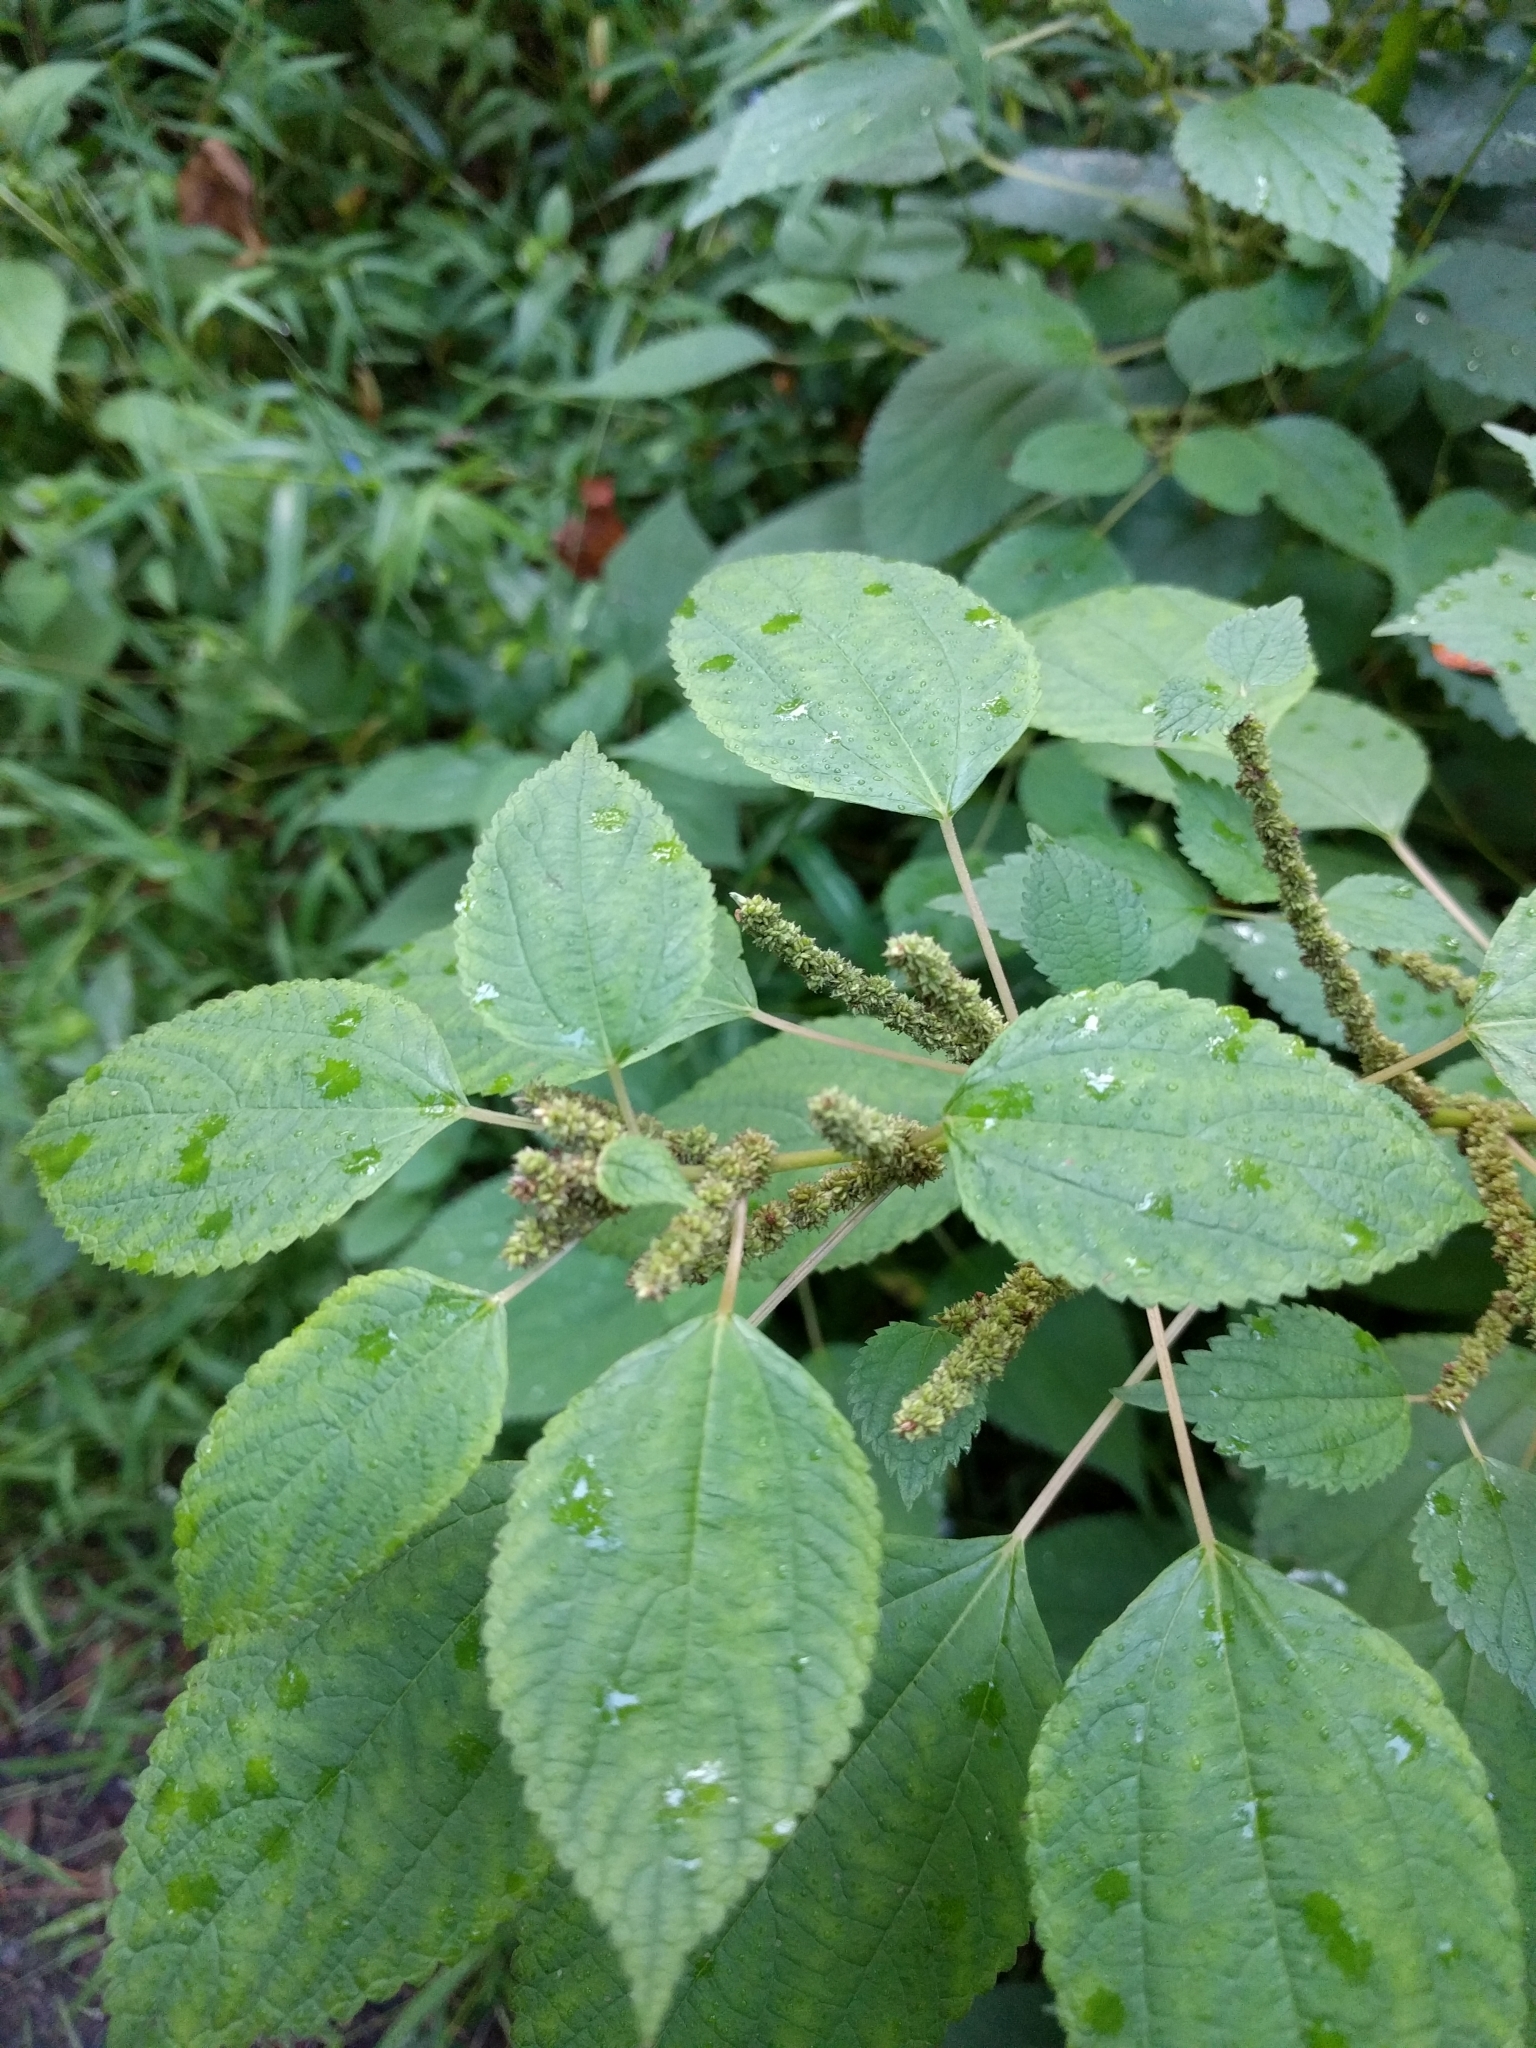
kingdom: Plantae
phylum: Tracheophyta
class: Magnoliopsida
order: Rosales
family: Urticaceae
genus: Boehmeria
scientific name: Boehmeria cylindrica
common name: Bog-hemp
